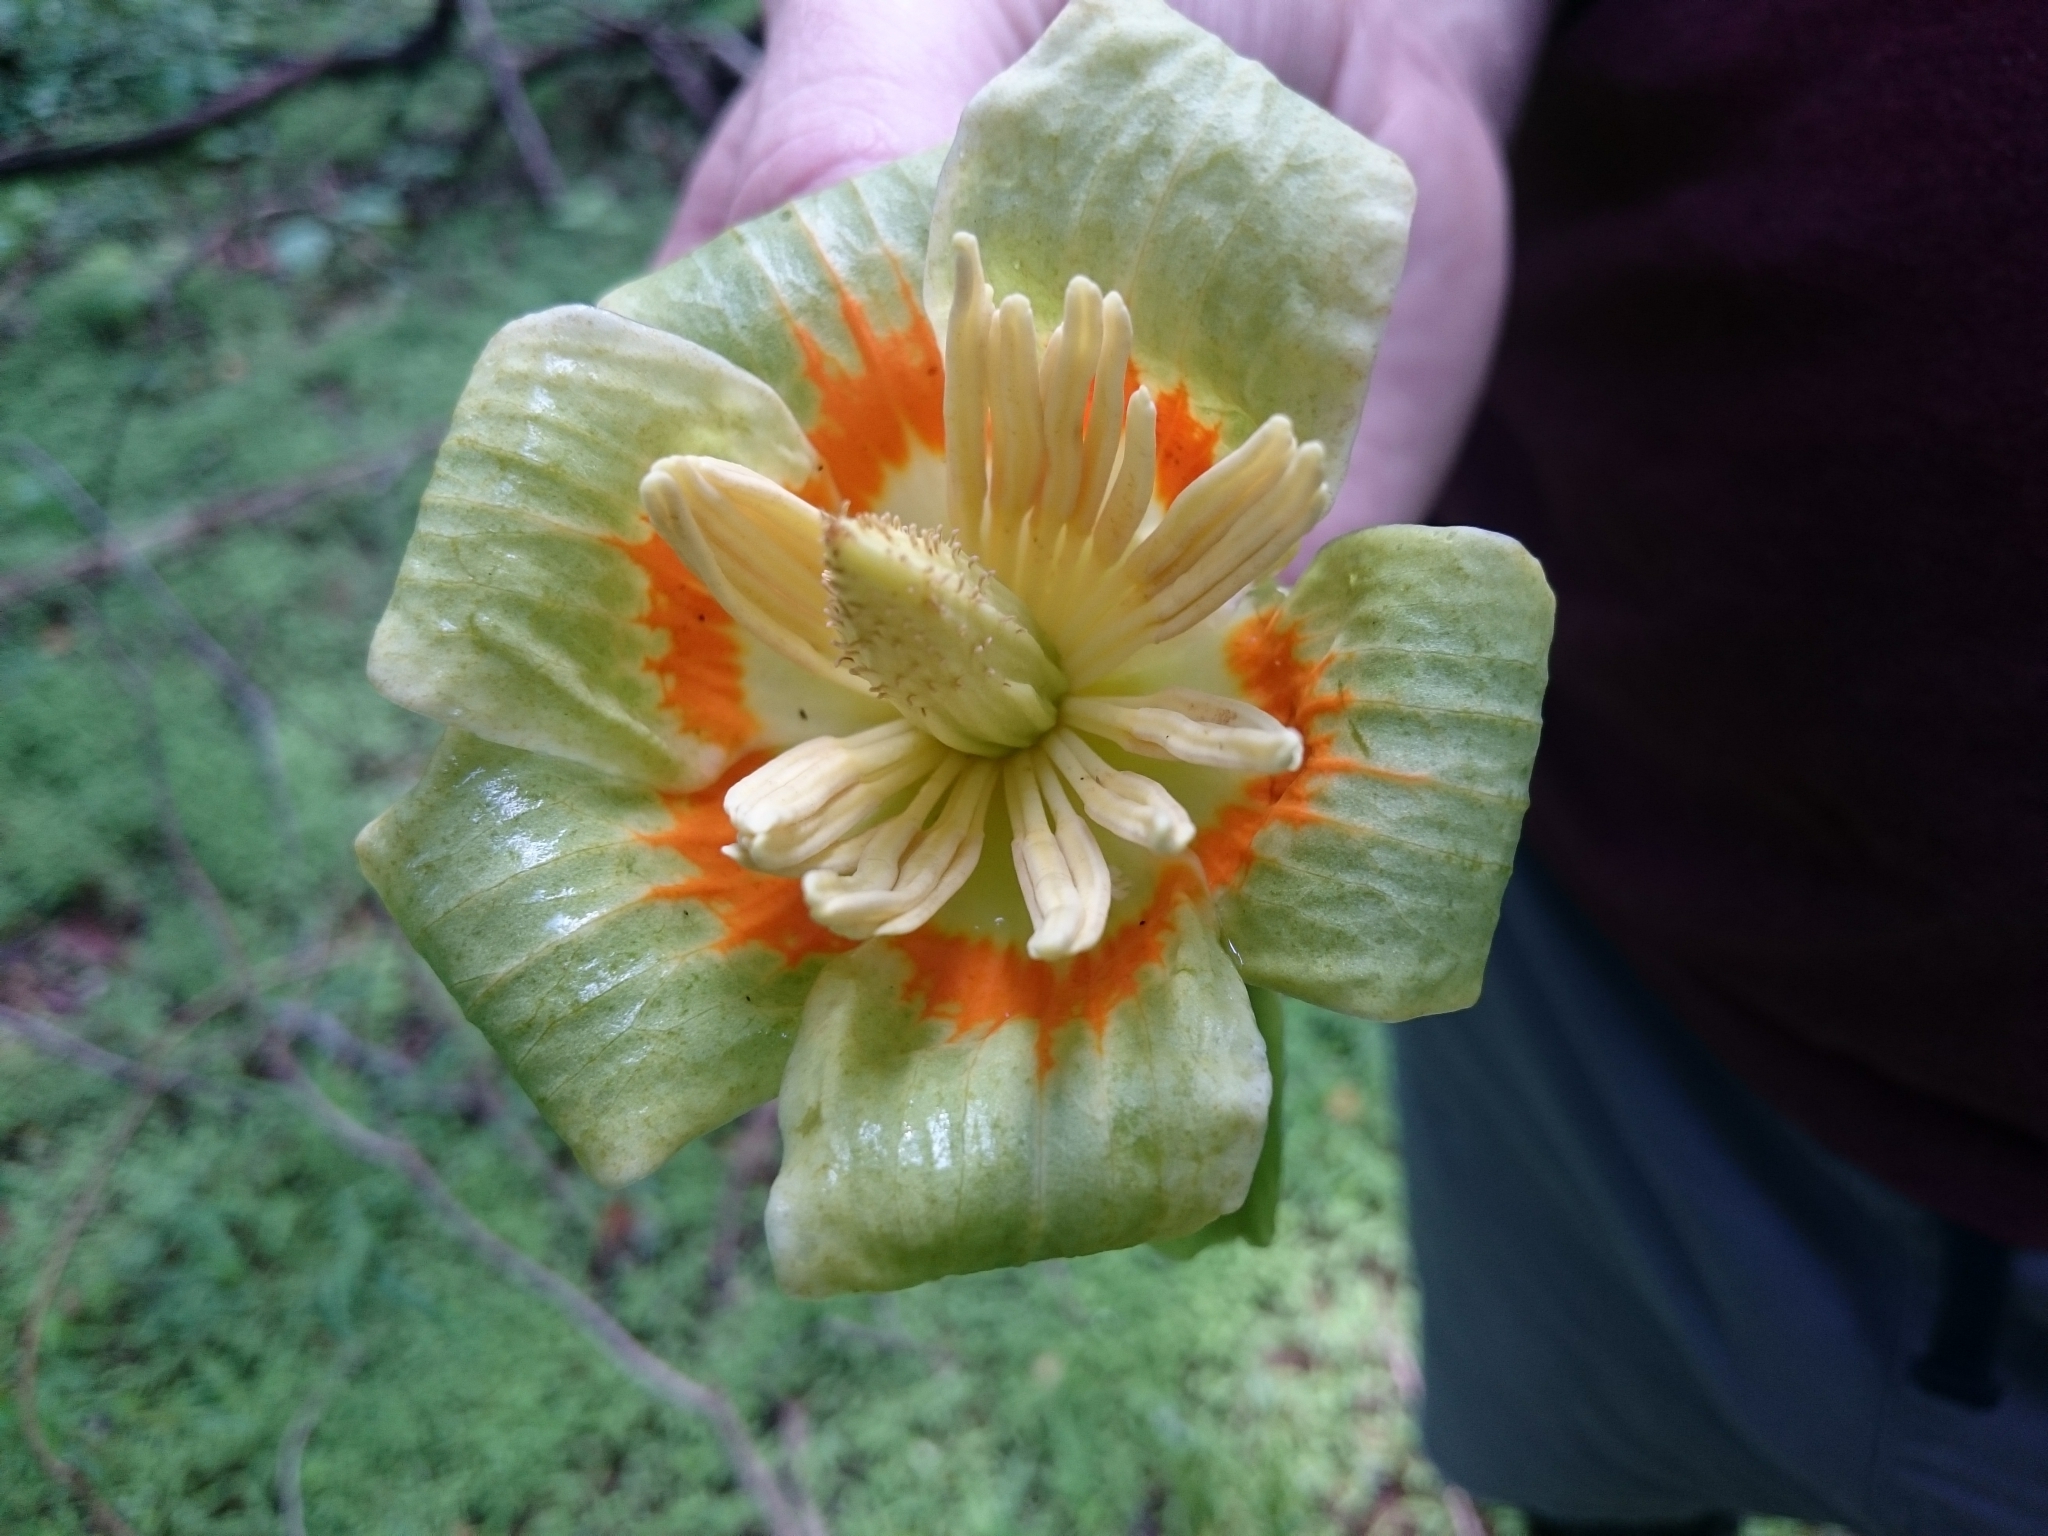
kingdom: Plantae
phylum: Tracheophyta
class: Magnoliopsida
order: Magnoliales
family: Magnoliaceae
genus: Liriodendron
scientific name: Liriodendron tulipifera
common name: Tulip tree
